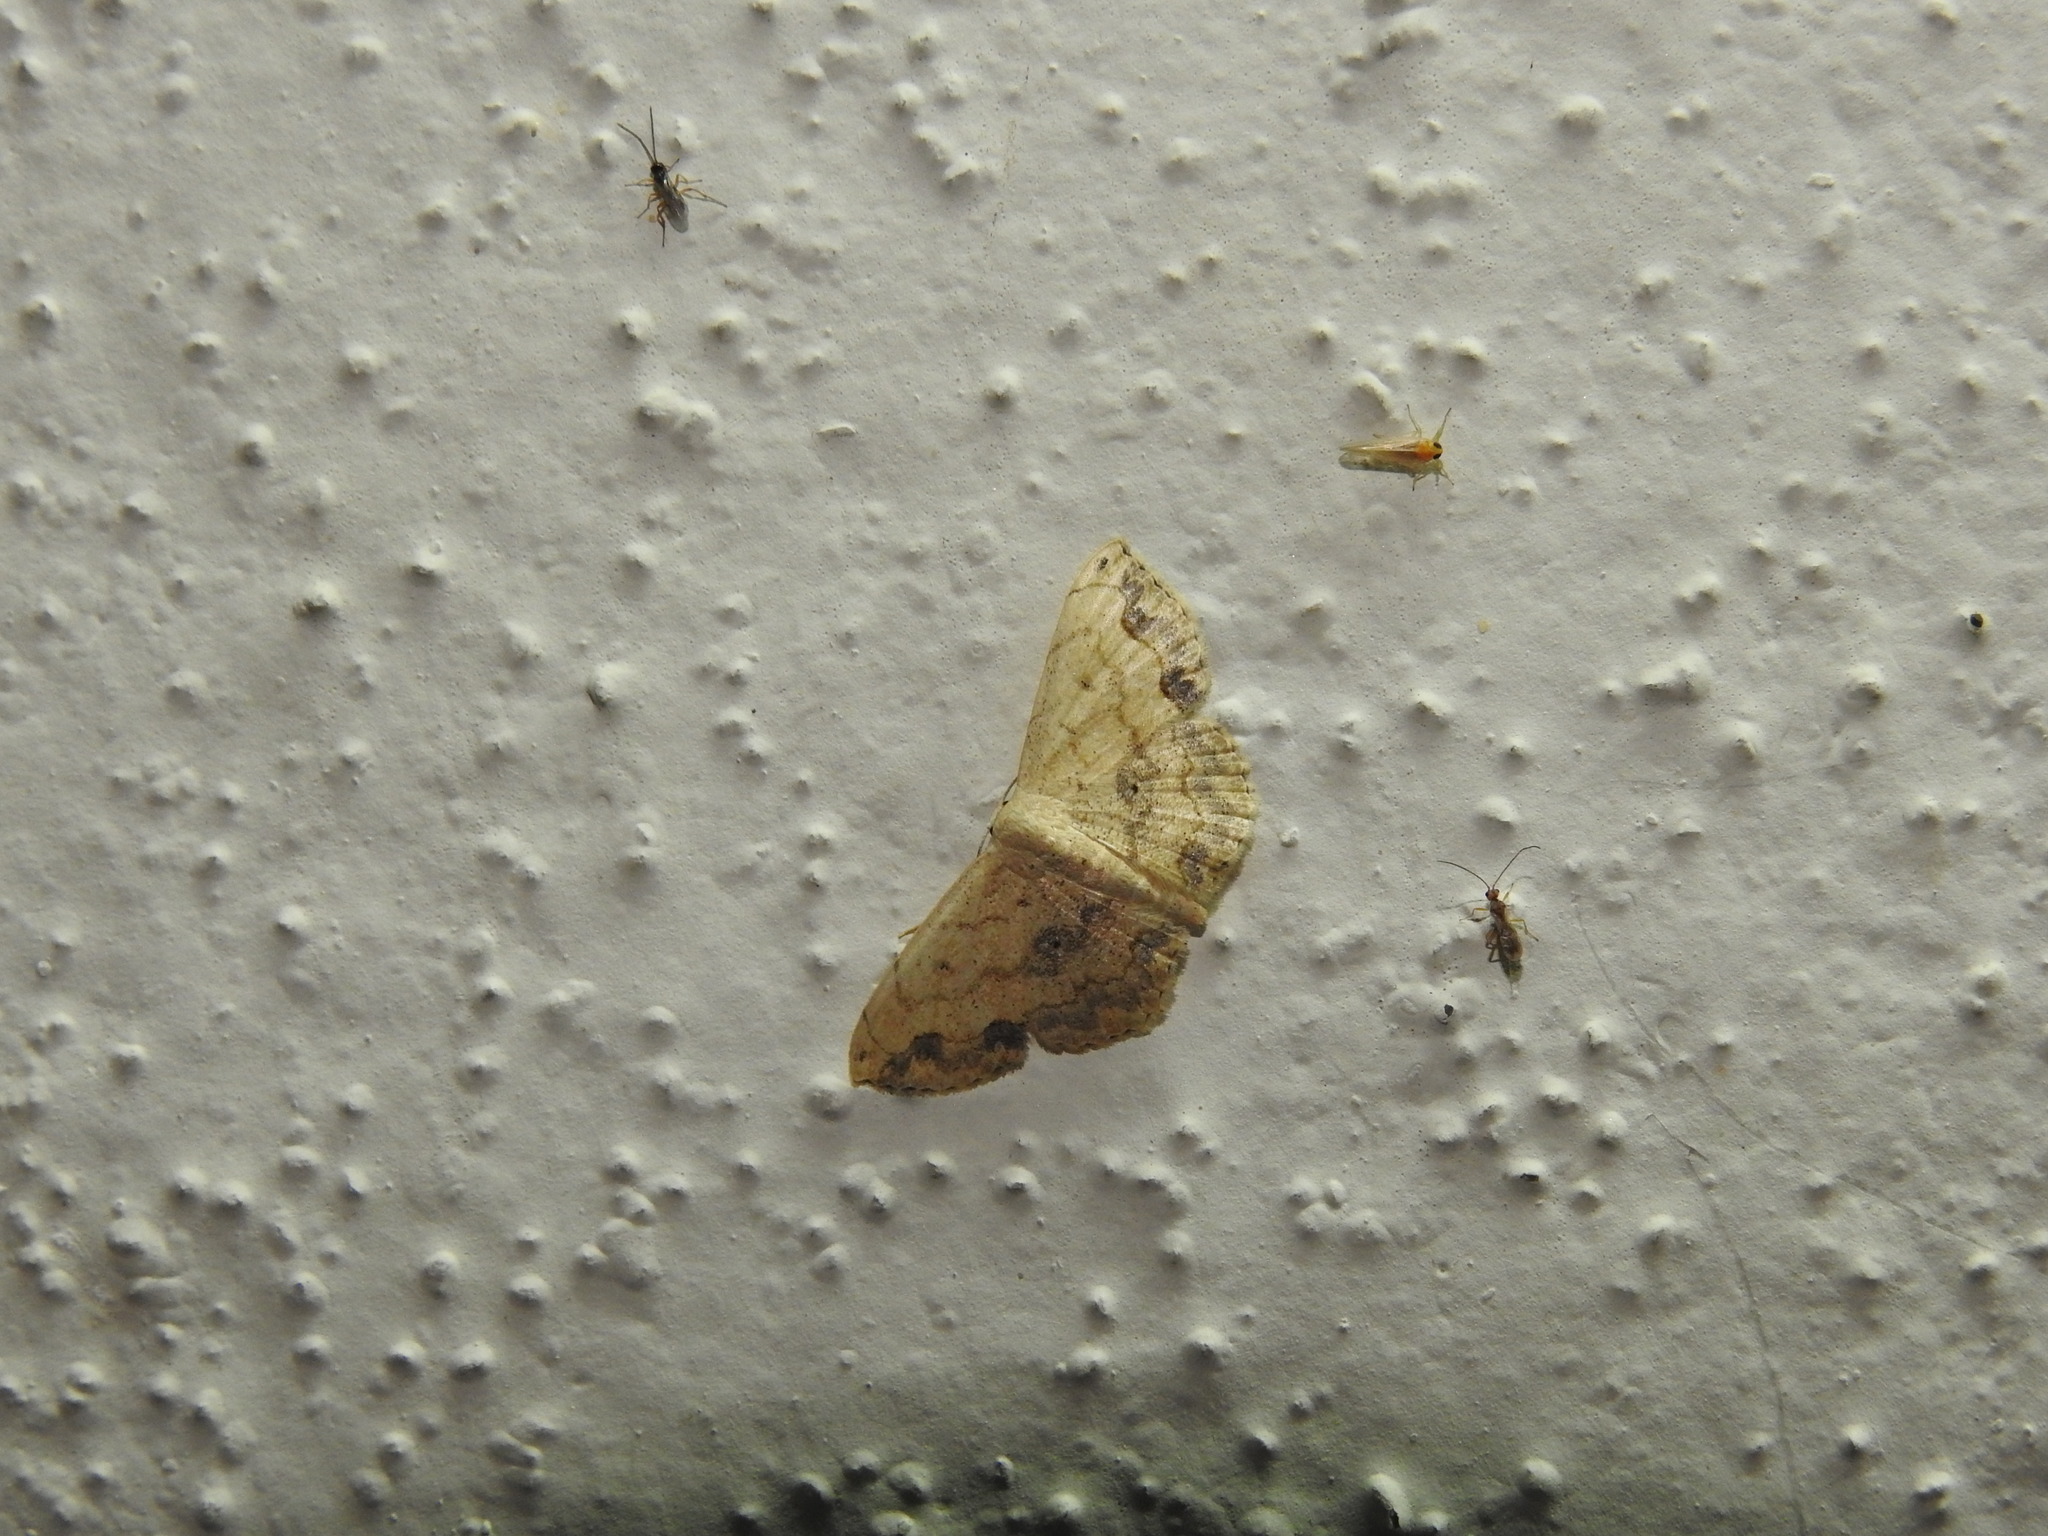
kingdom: Animalia
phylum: Arthropoda
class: Insecta
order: Lepidoptera
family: Geometridae
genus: Scopula
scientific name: Scopula addictaria
